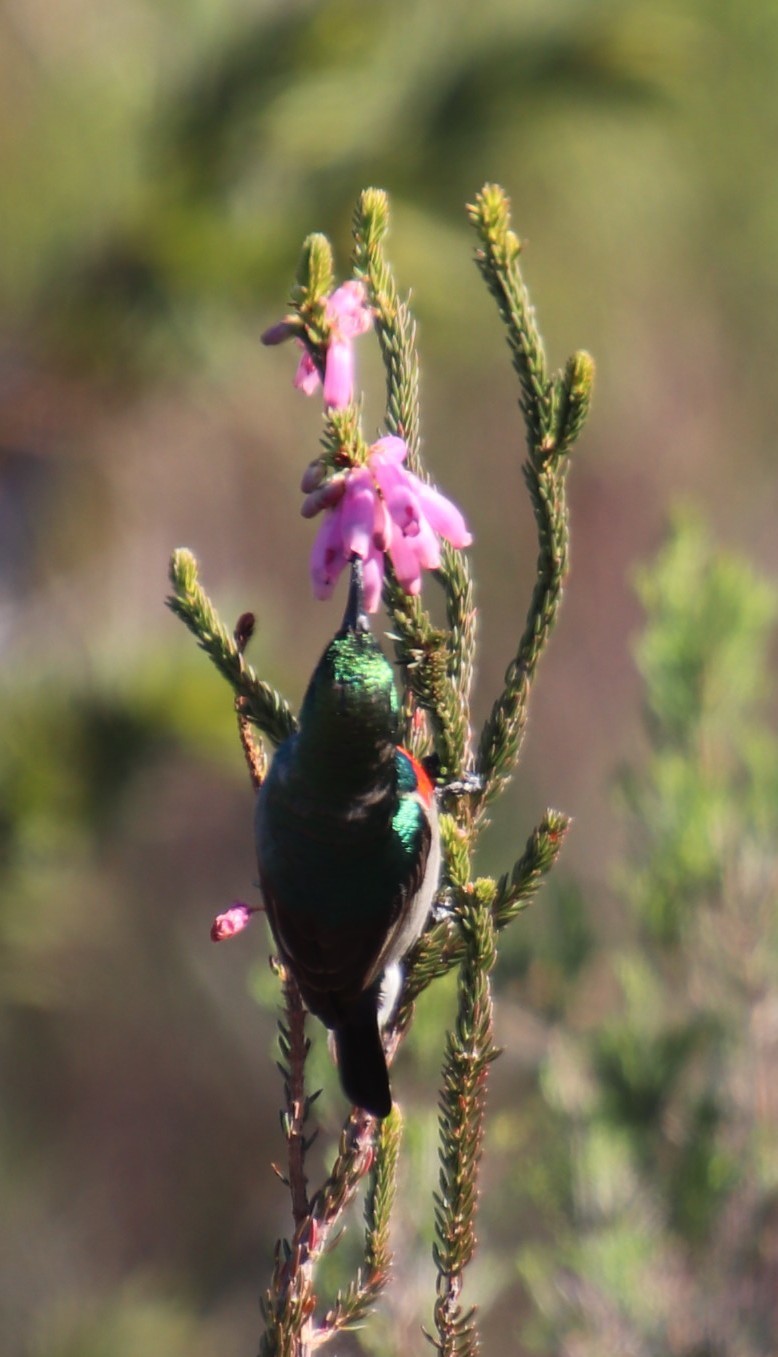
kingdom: Plantae
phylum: Tracheophyta
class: Magnoliopsida
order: Ericales
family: Ericaceae
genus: Erica
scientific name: Erica mammosa
